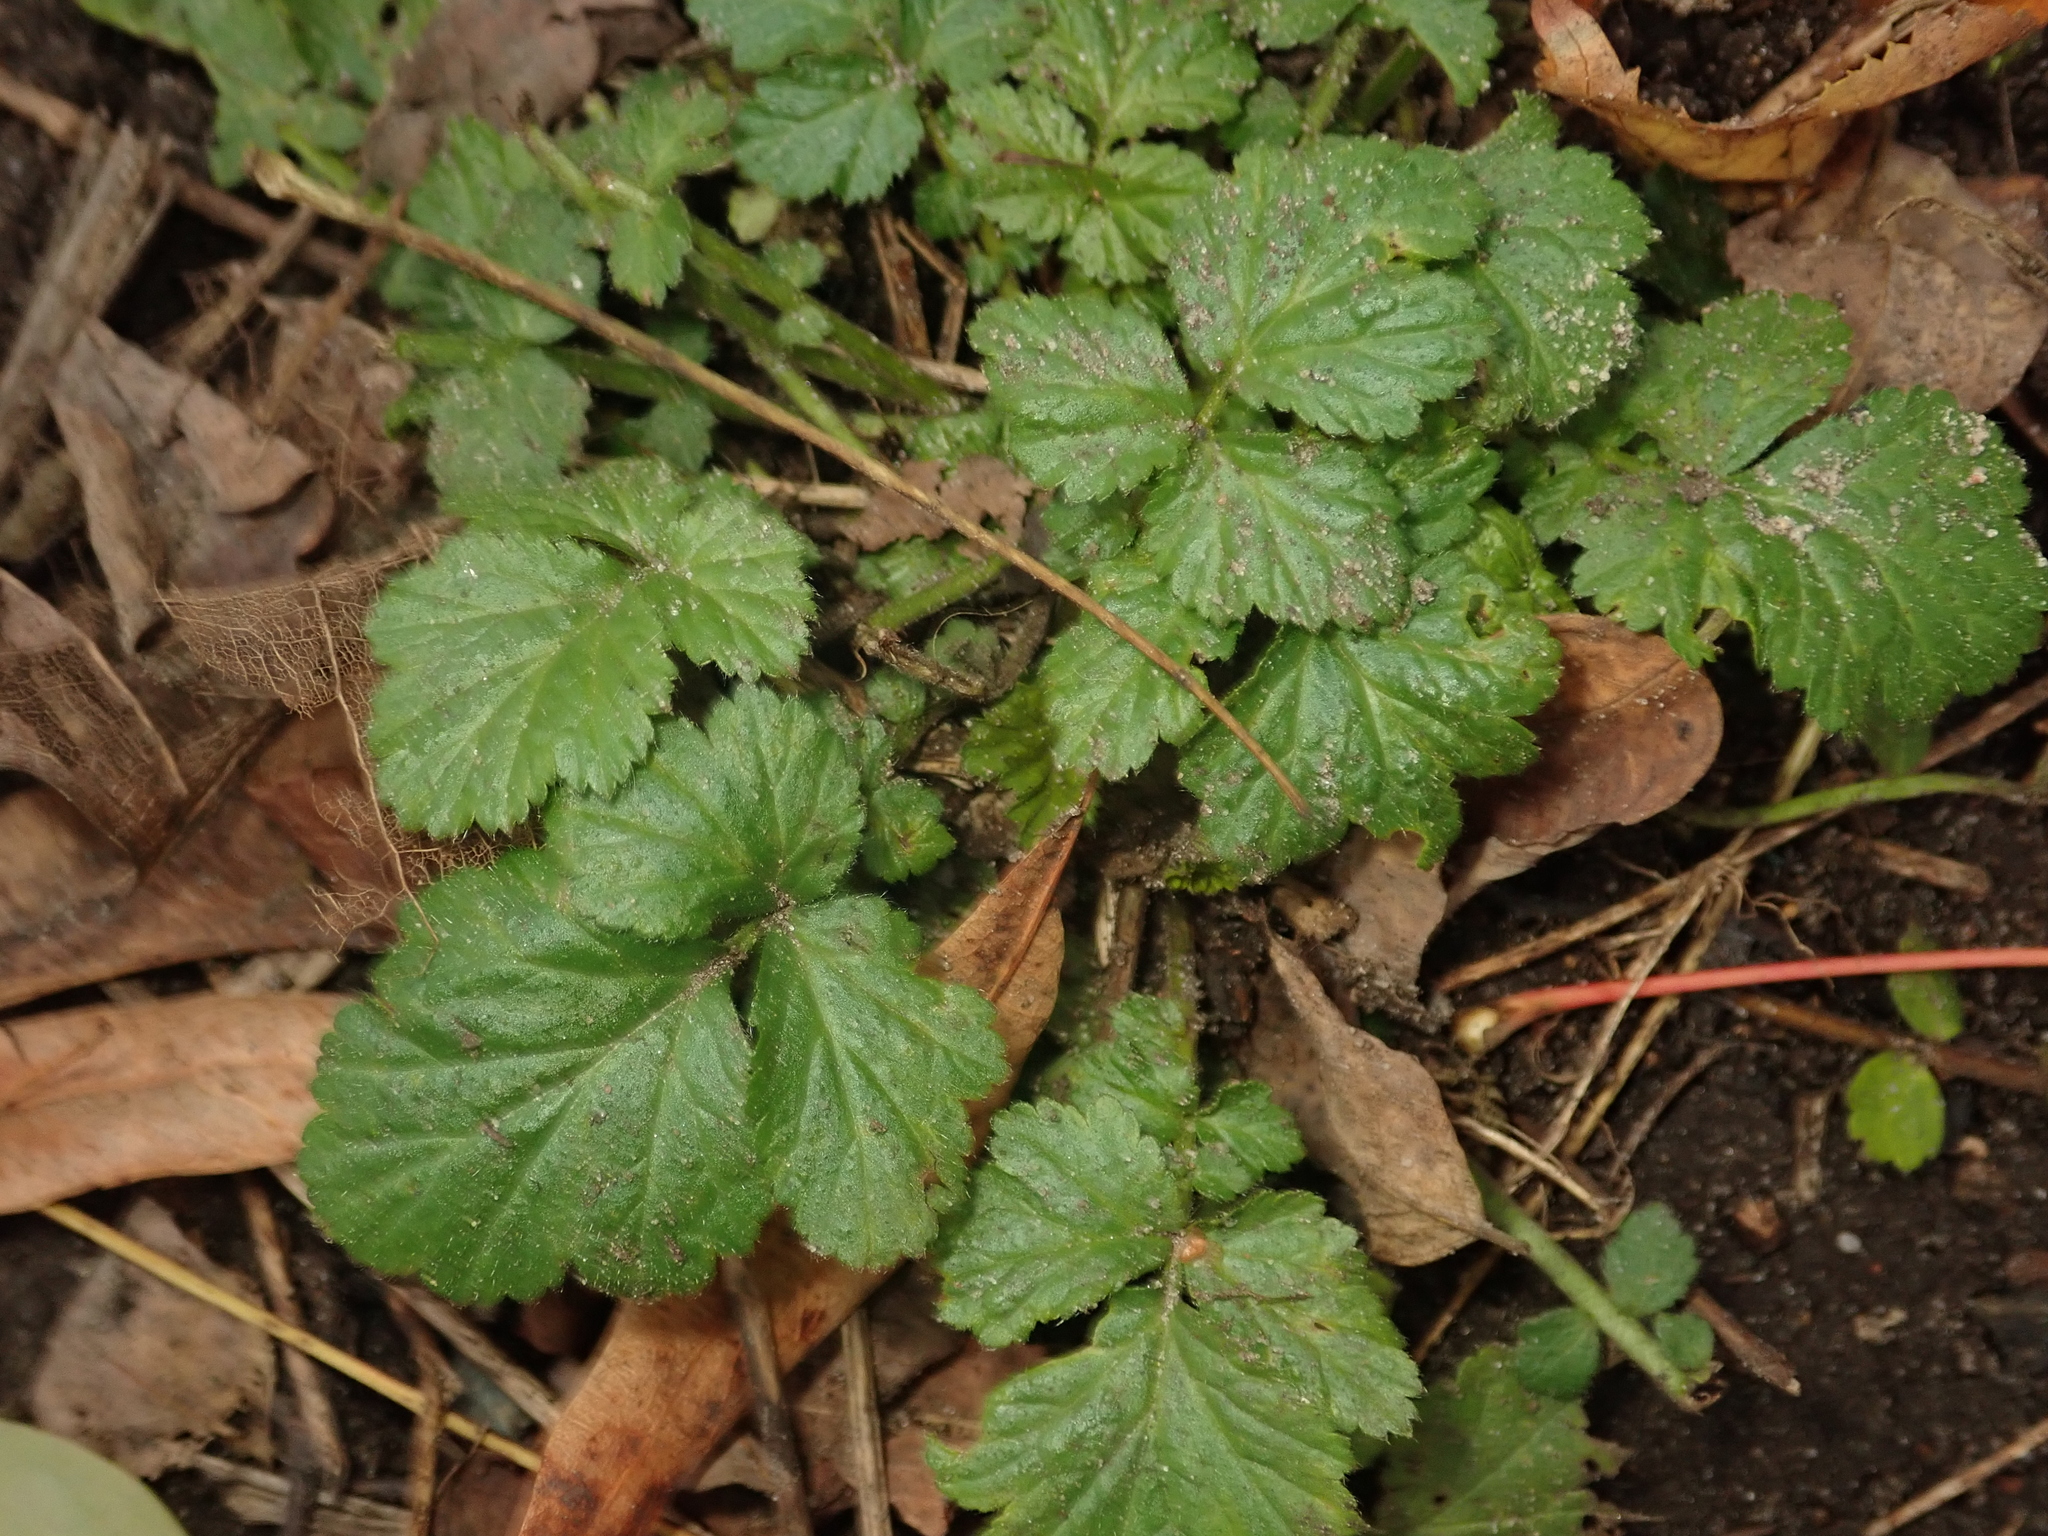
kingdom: Plantae
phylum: Tracheophyta
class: Magnoliopsida
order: Rosales
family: Rosaceae
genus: Geum
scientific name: Geum urbanum
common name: Wood avens
